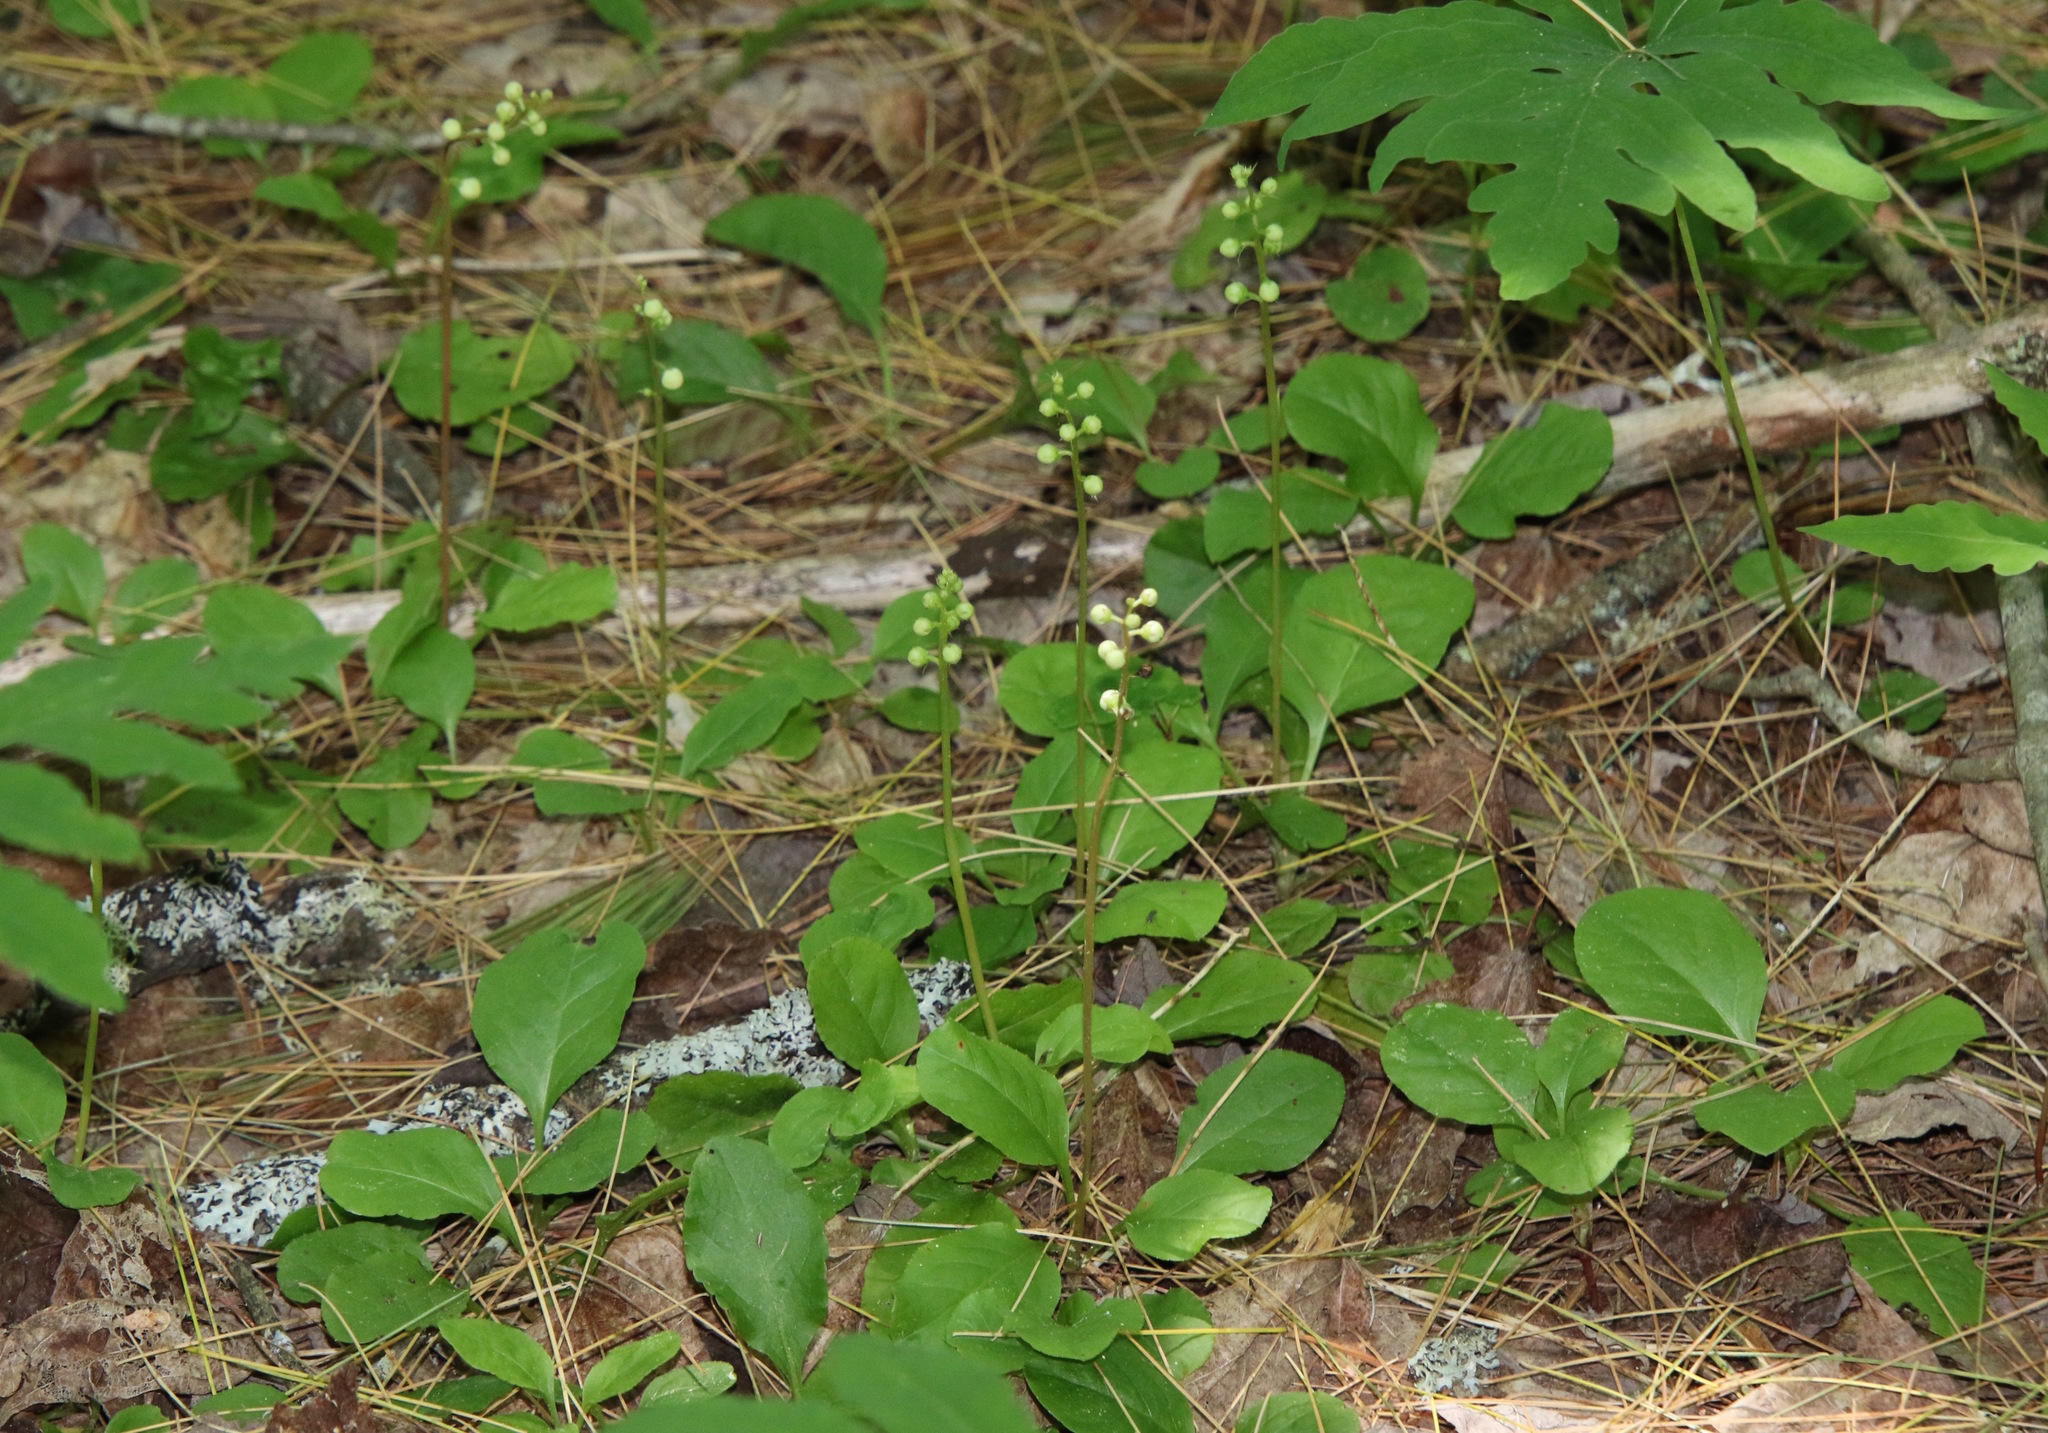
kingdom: Plantae
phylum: Tracheophyta
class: Magnoliopsida
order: Ericales
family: Ericaceae
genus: Pyrola
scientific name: Pyrola elliptica
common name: Shinleaf
